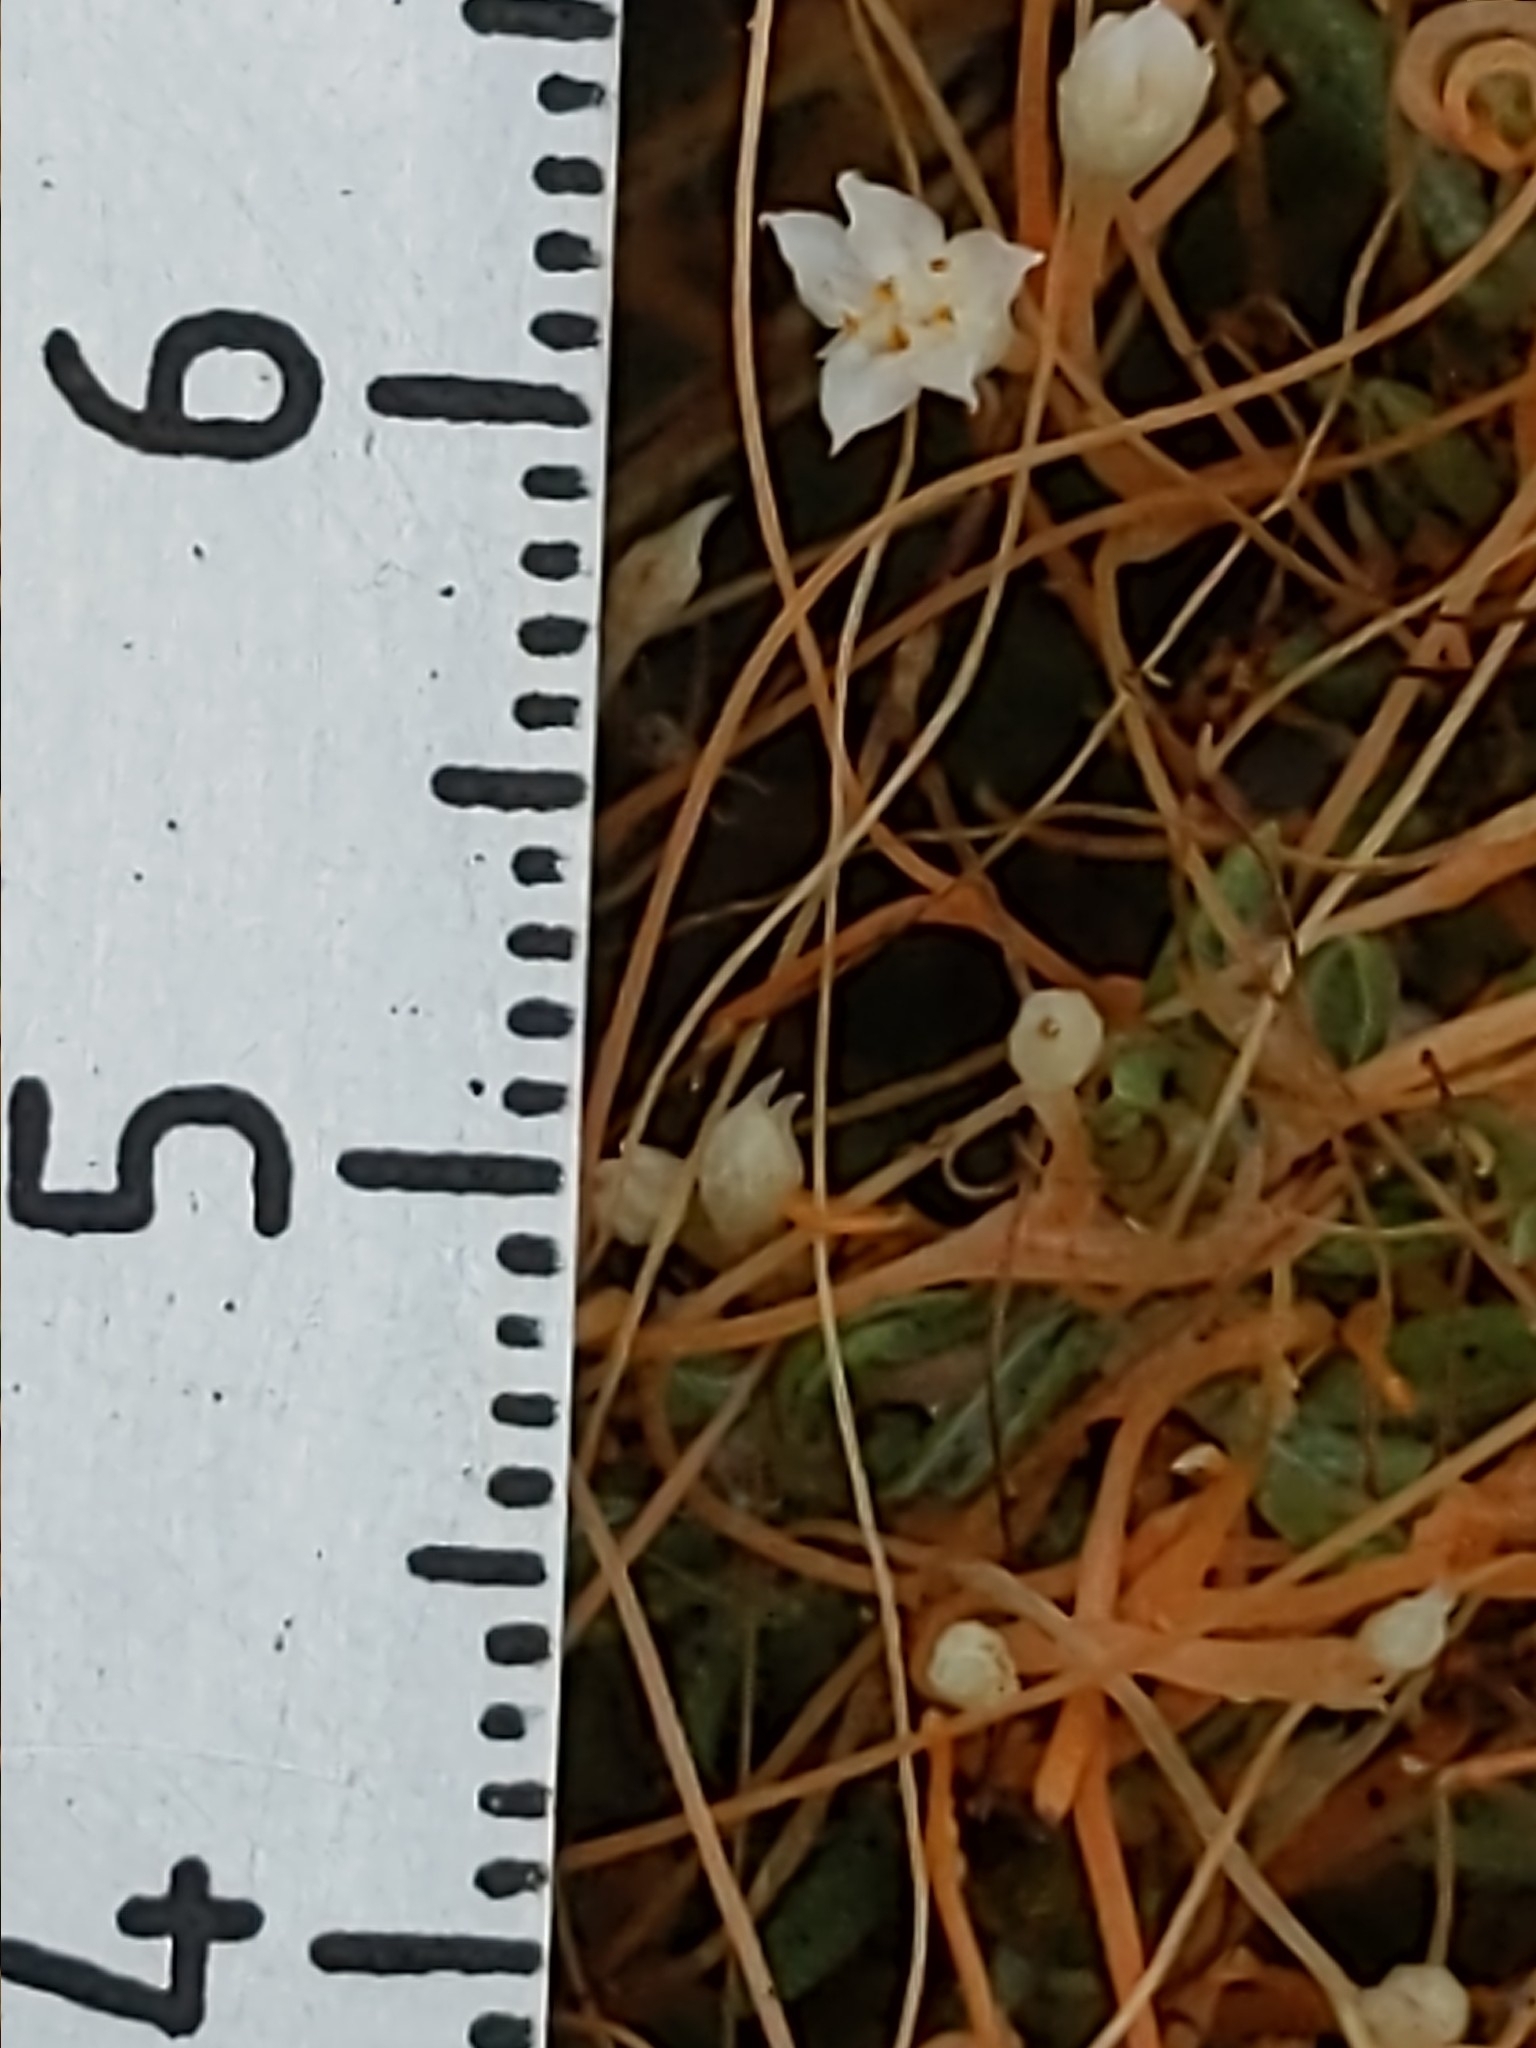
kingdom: Plantae
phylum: Tracheophyta
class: Magnoliopsida
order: Solanales
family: Convolvulaceae
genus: Cuscuta
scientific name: Cuscuta pacifica
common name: Large saltmarsh dodder
